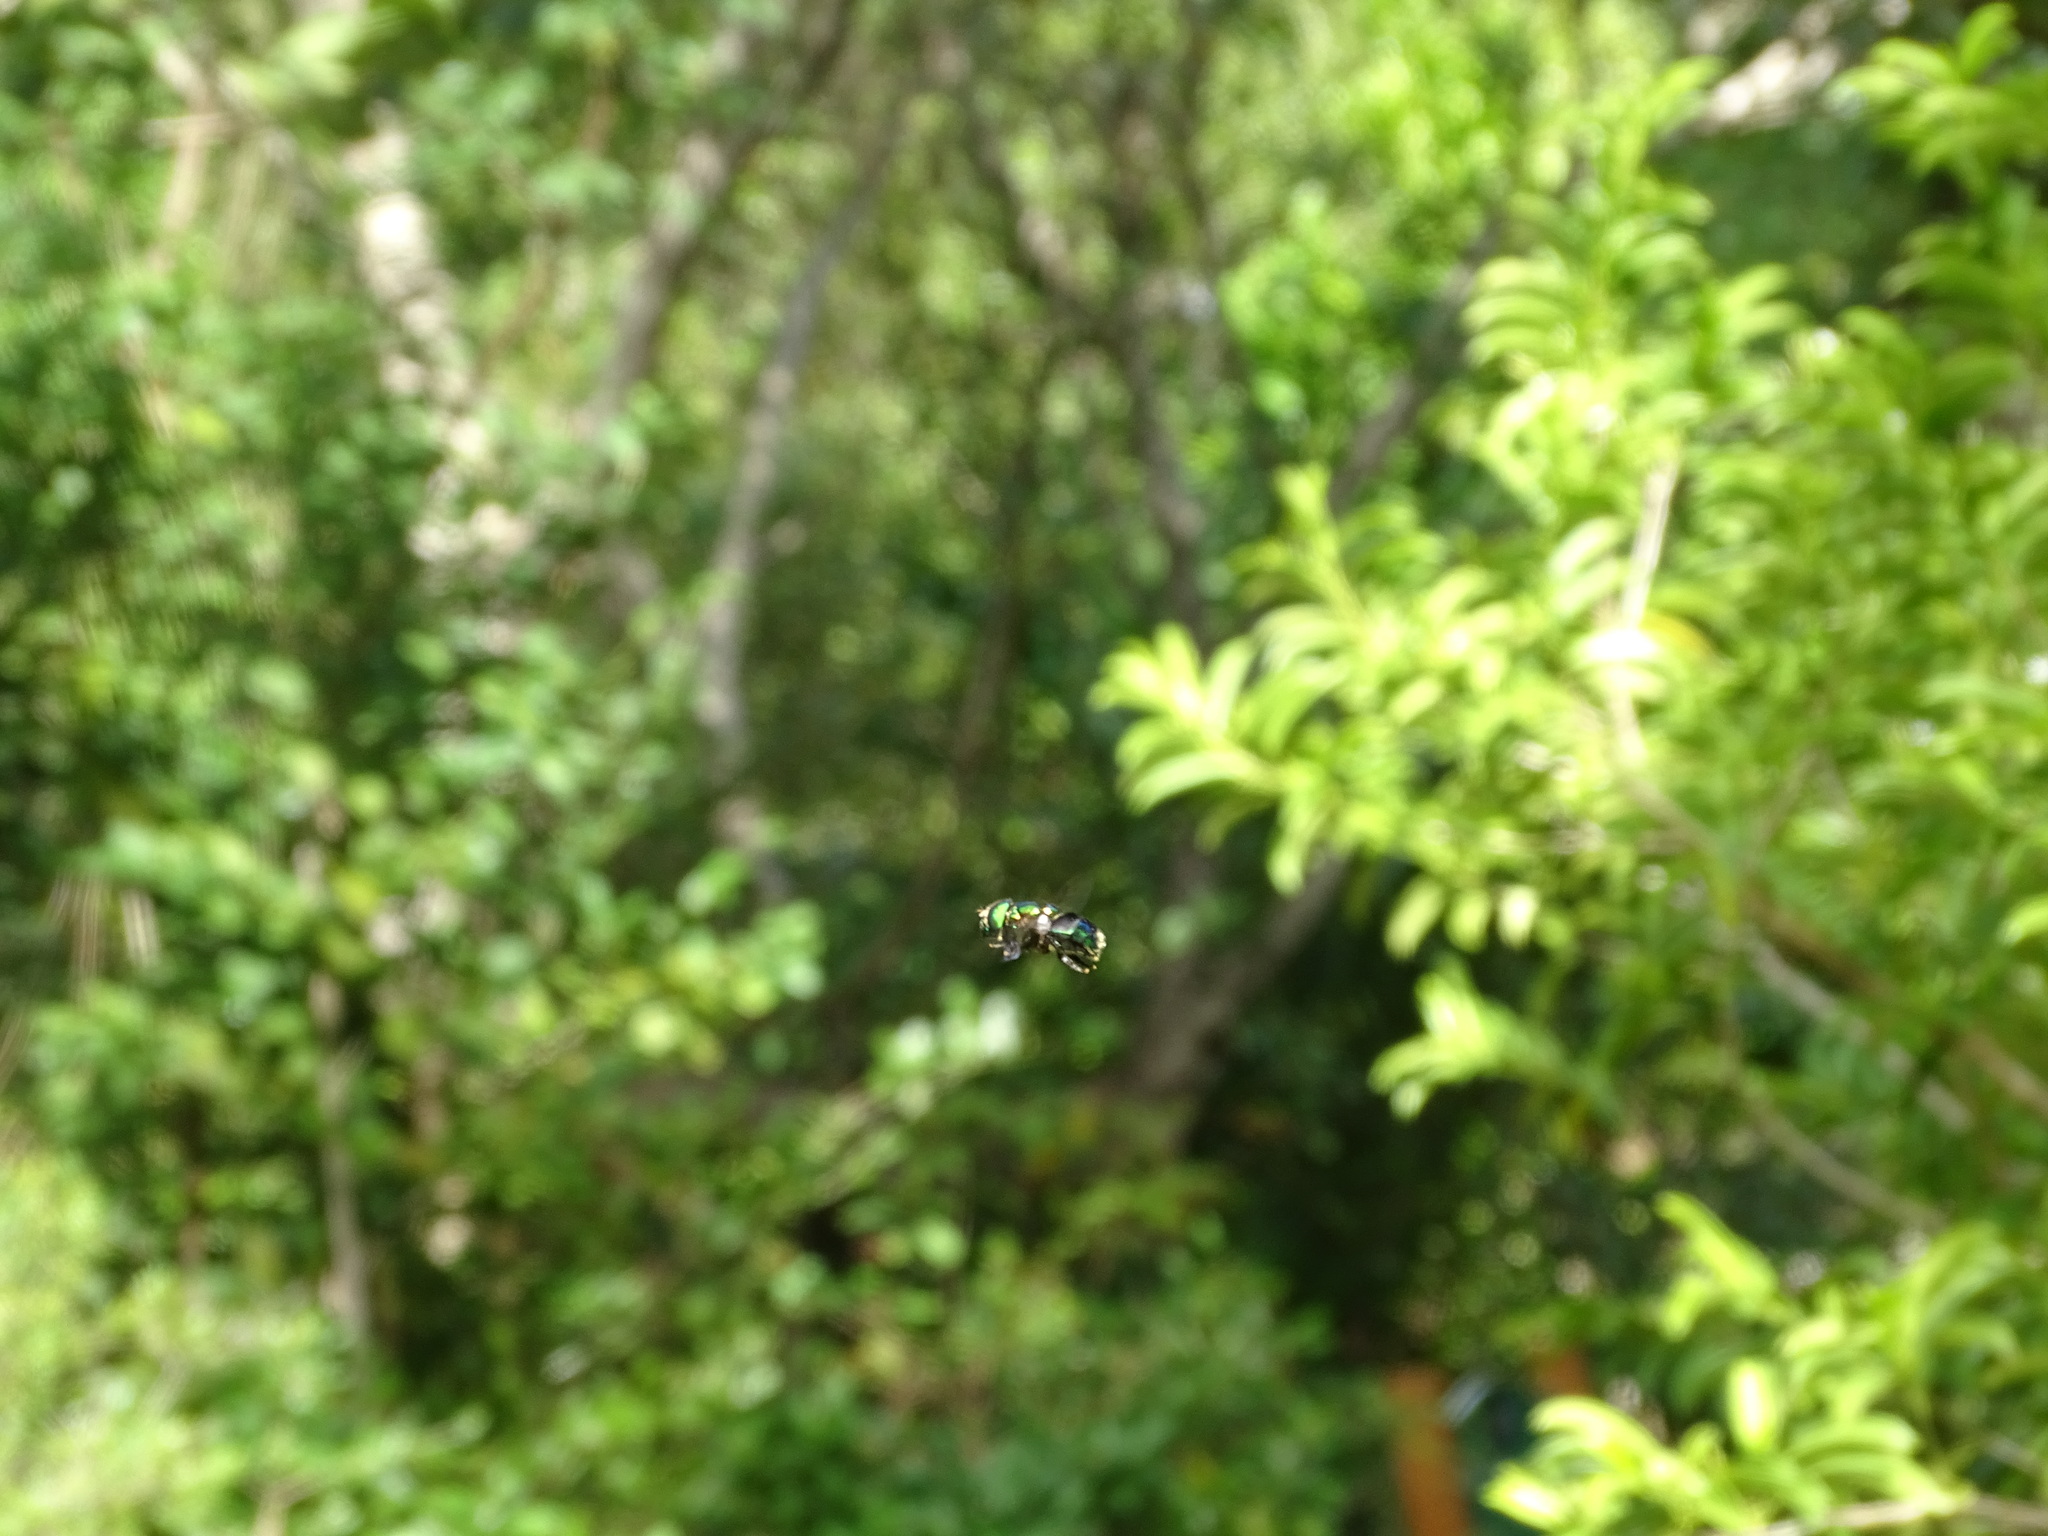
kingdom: Animalia
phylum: Arthropoda
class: Insecta
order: Diptera
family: Syrphidae
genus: Ornidia
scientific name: Ornidia obesa
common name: Syrphid fly
